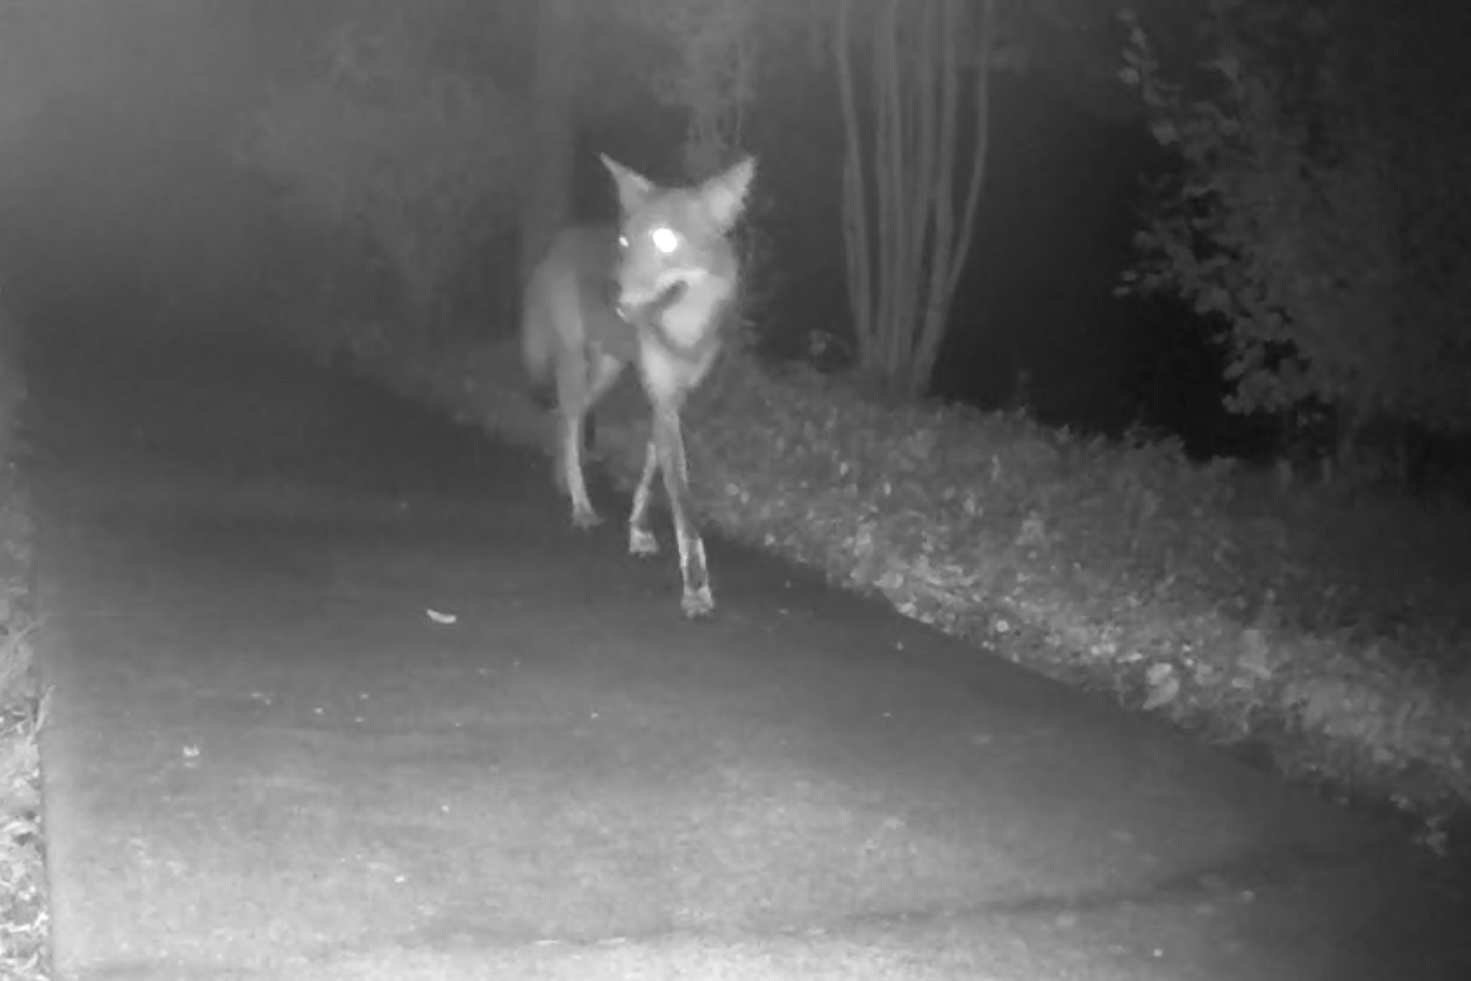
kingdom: Animalia
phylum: Chordata
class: Mammalia
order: Carnivora
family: Canidae
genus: Canis
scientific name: Canis latrans
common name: Coyote
